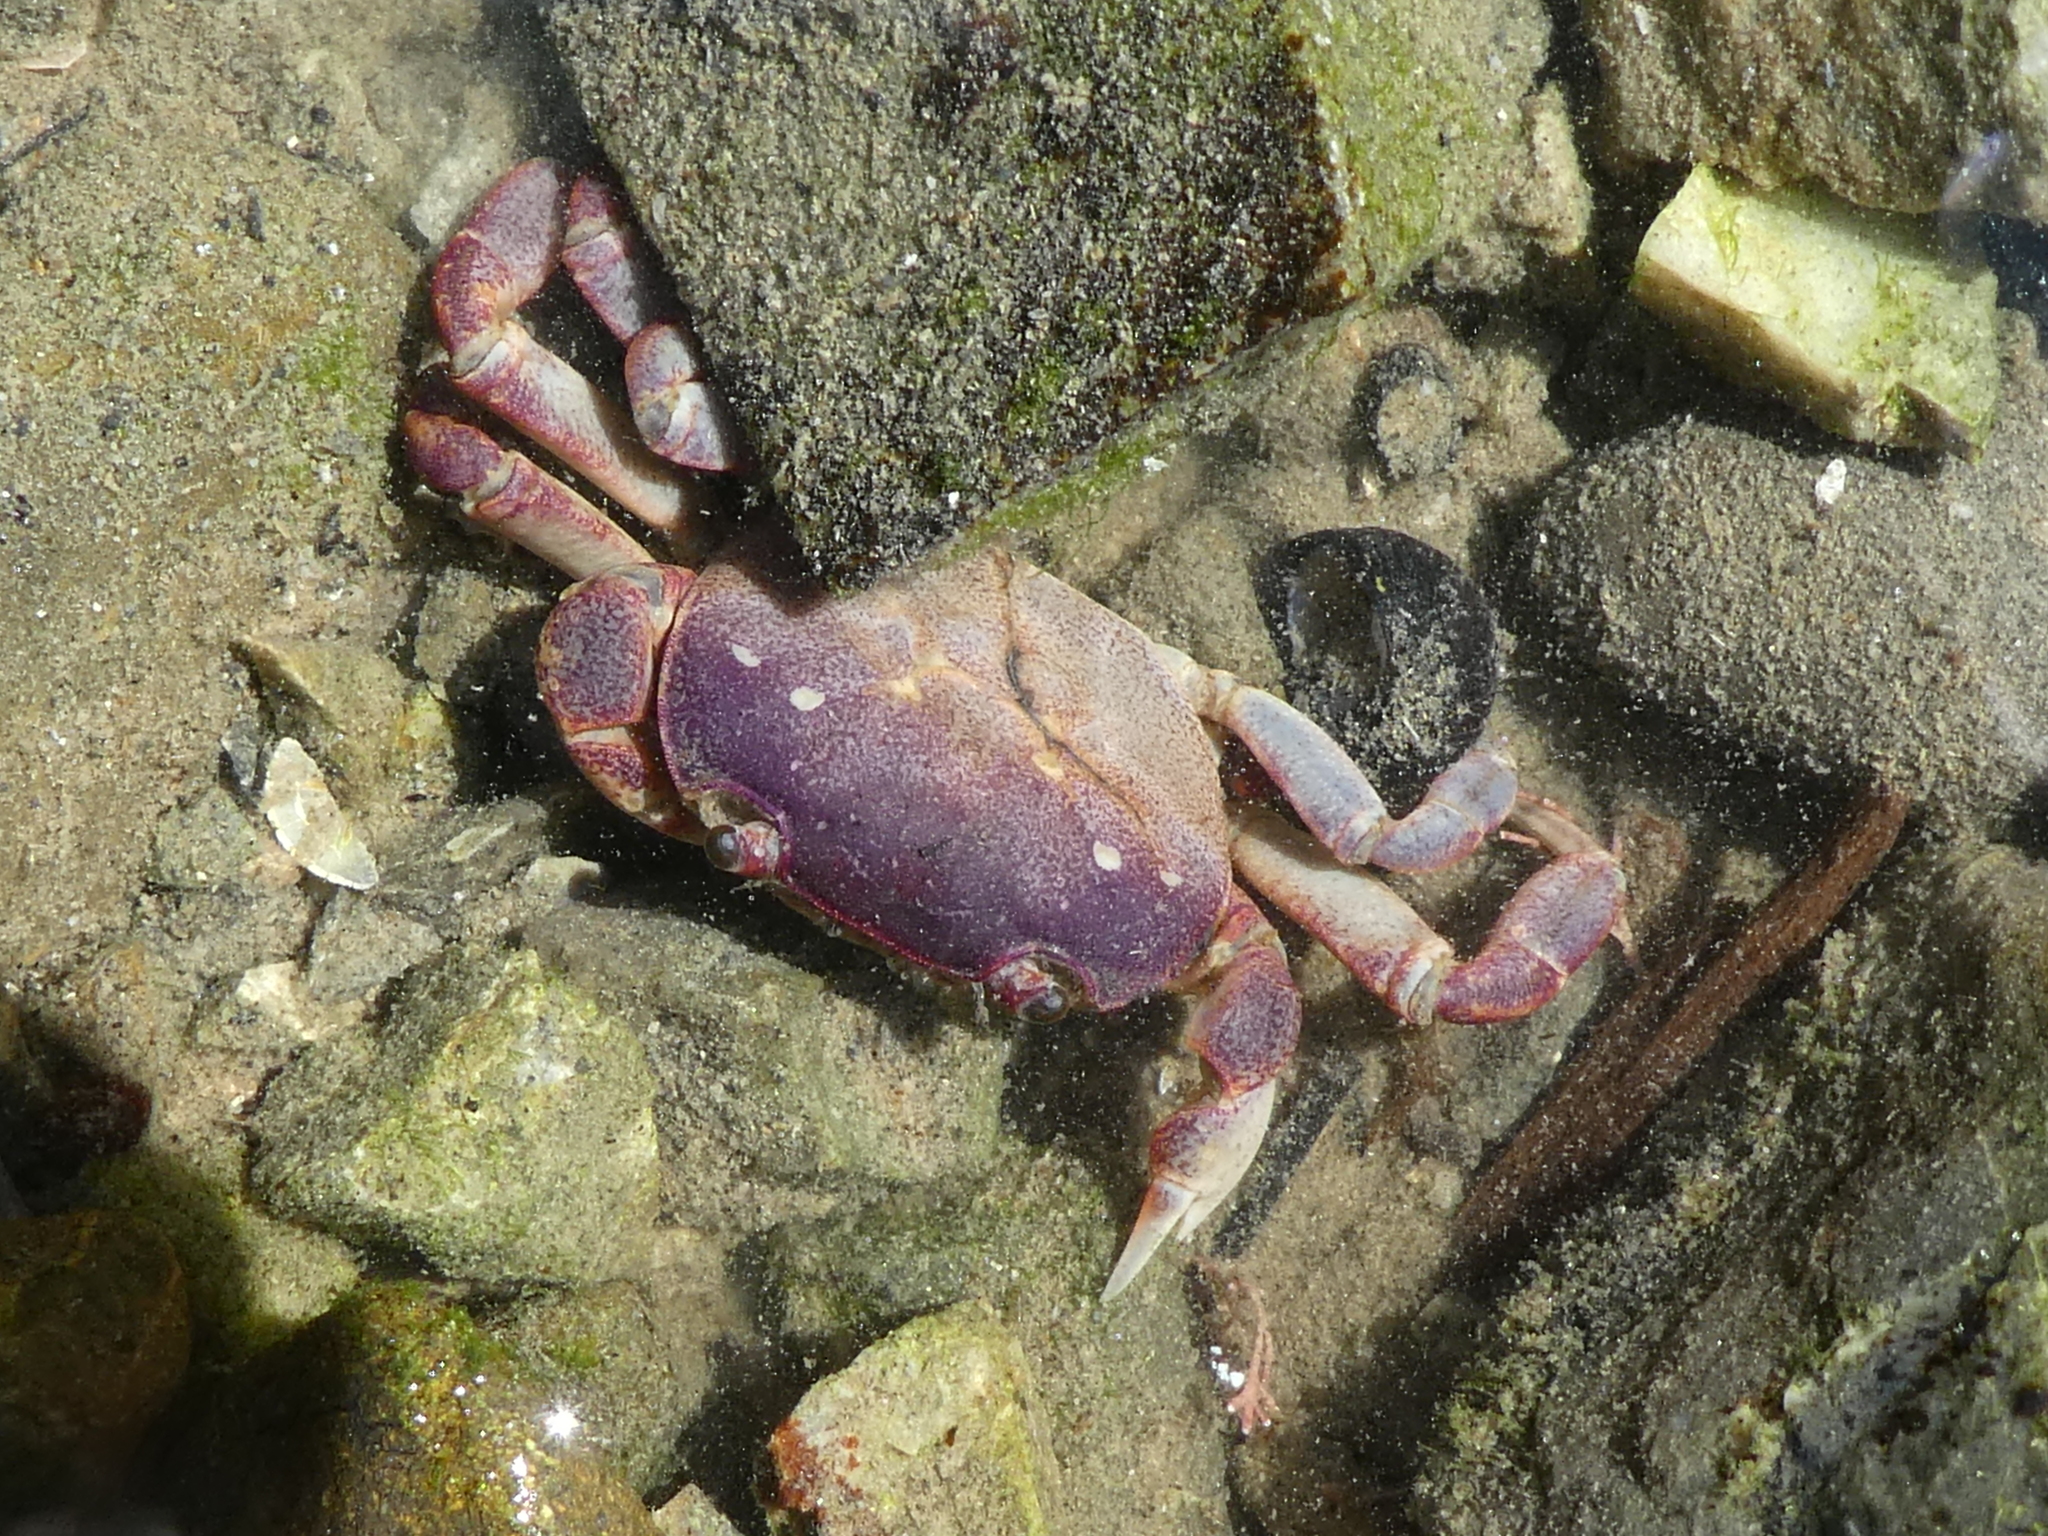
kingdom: Animalia
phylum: Arthropoda
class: Malacostraca
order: Decapoda
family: Varunidae
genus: Cyclograpsus
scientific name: Cyclograpsus lavauxi
